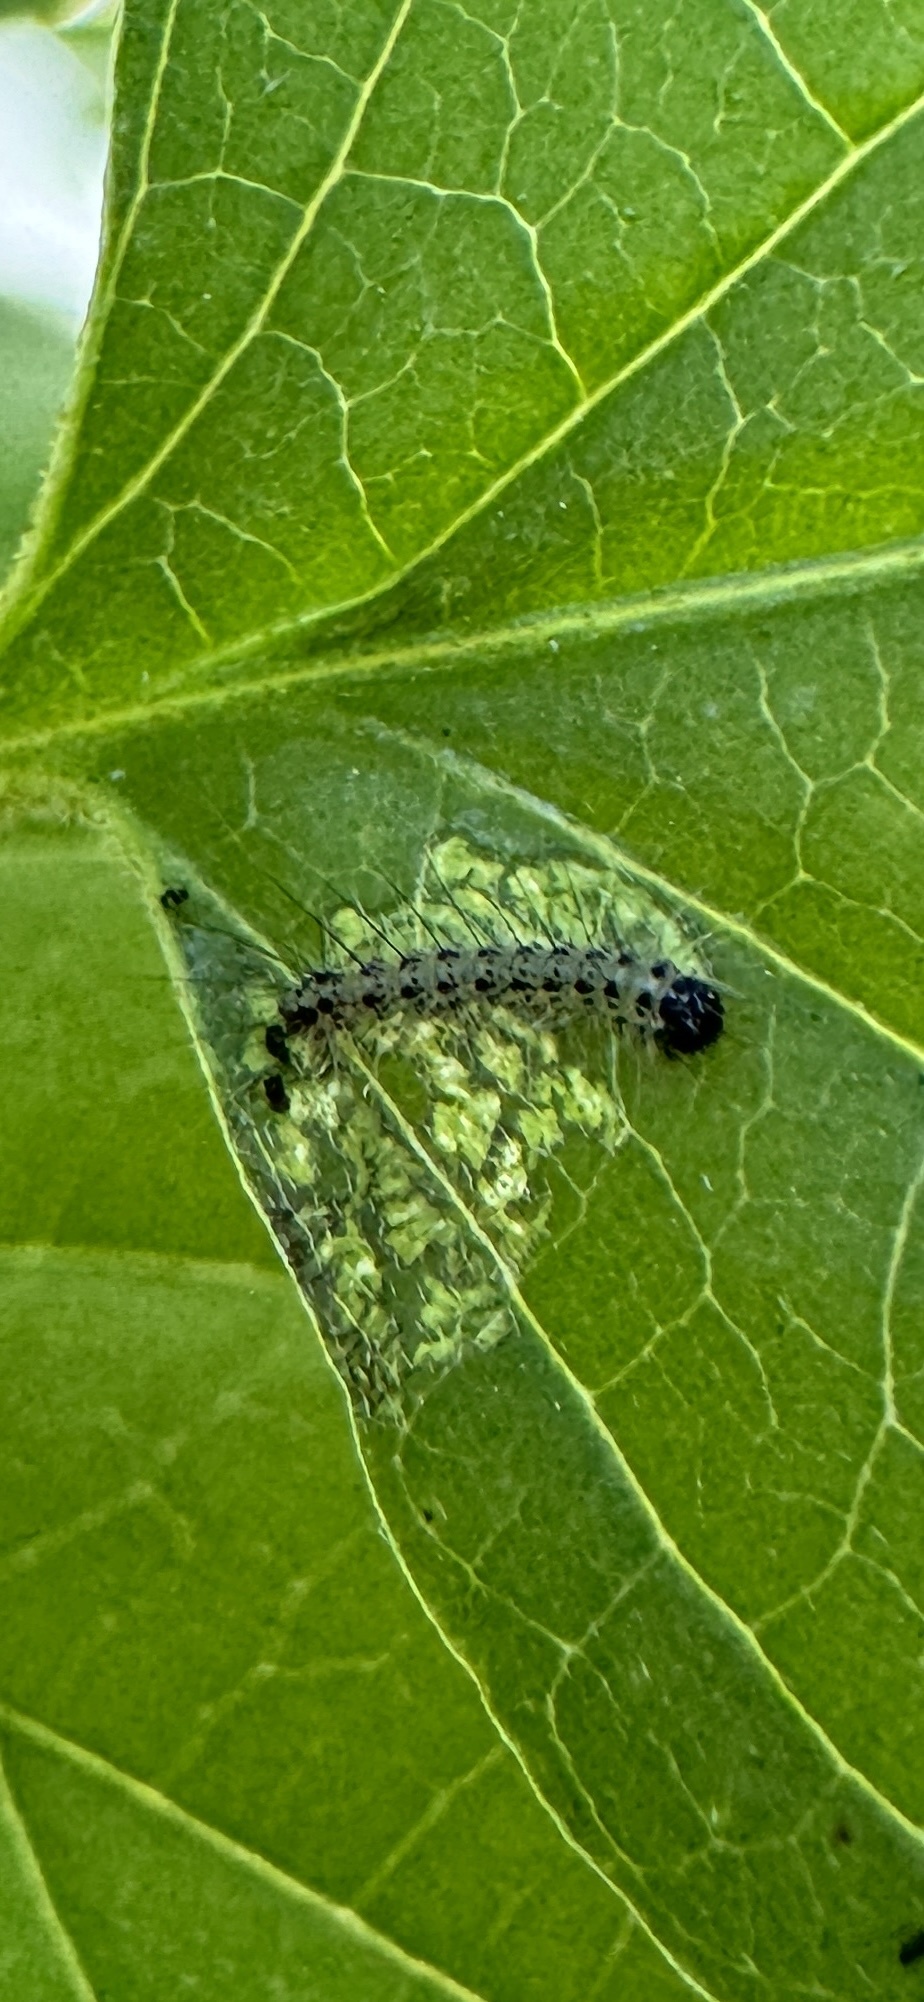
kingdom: Animalia
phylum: Arthropoda
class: Insecta
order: Lepidoptera
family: Erebidae
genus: Hyphantria
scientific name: Hyphantria cunea
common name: American white moth
